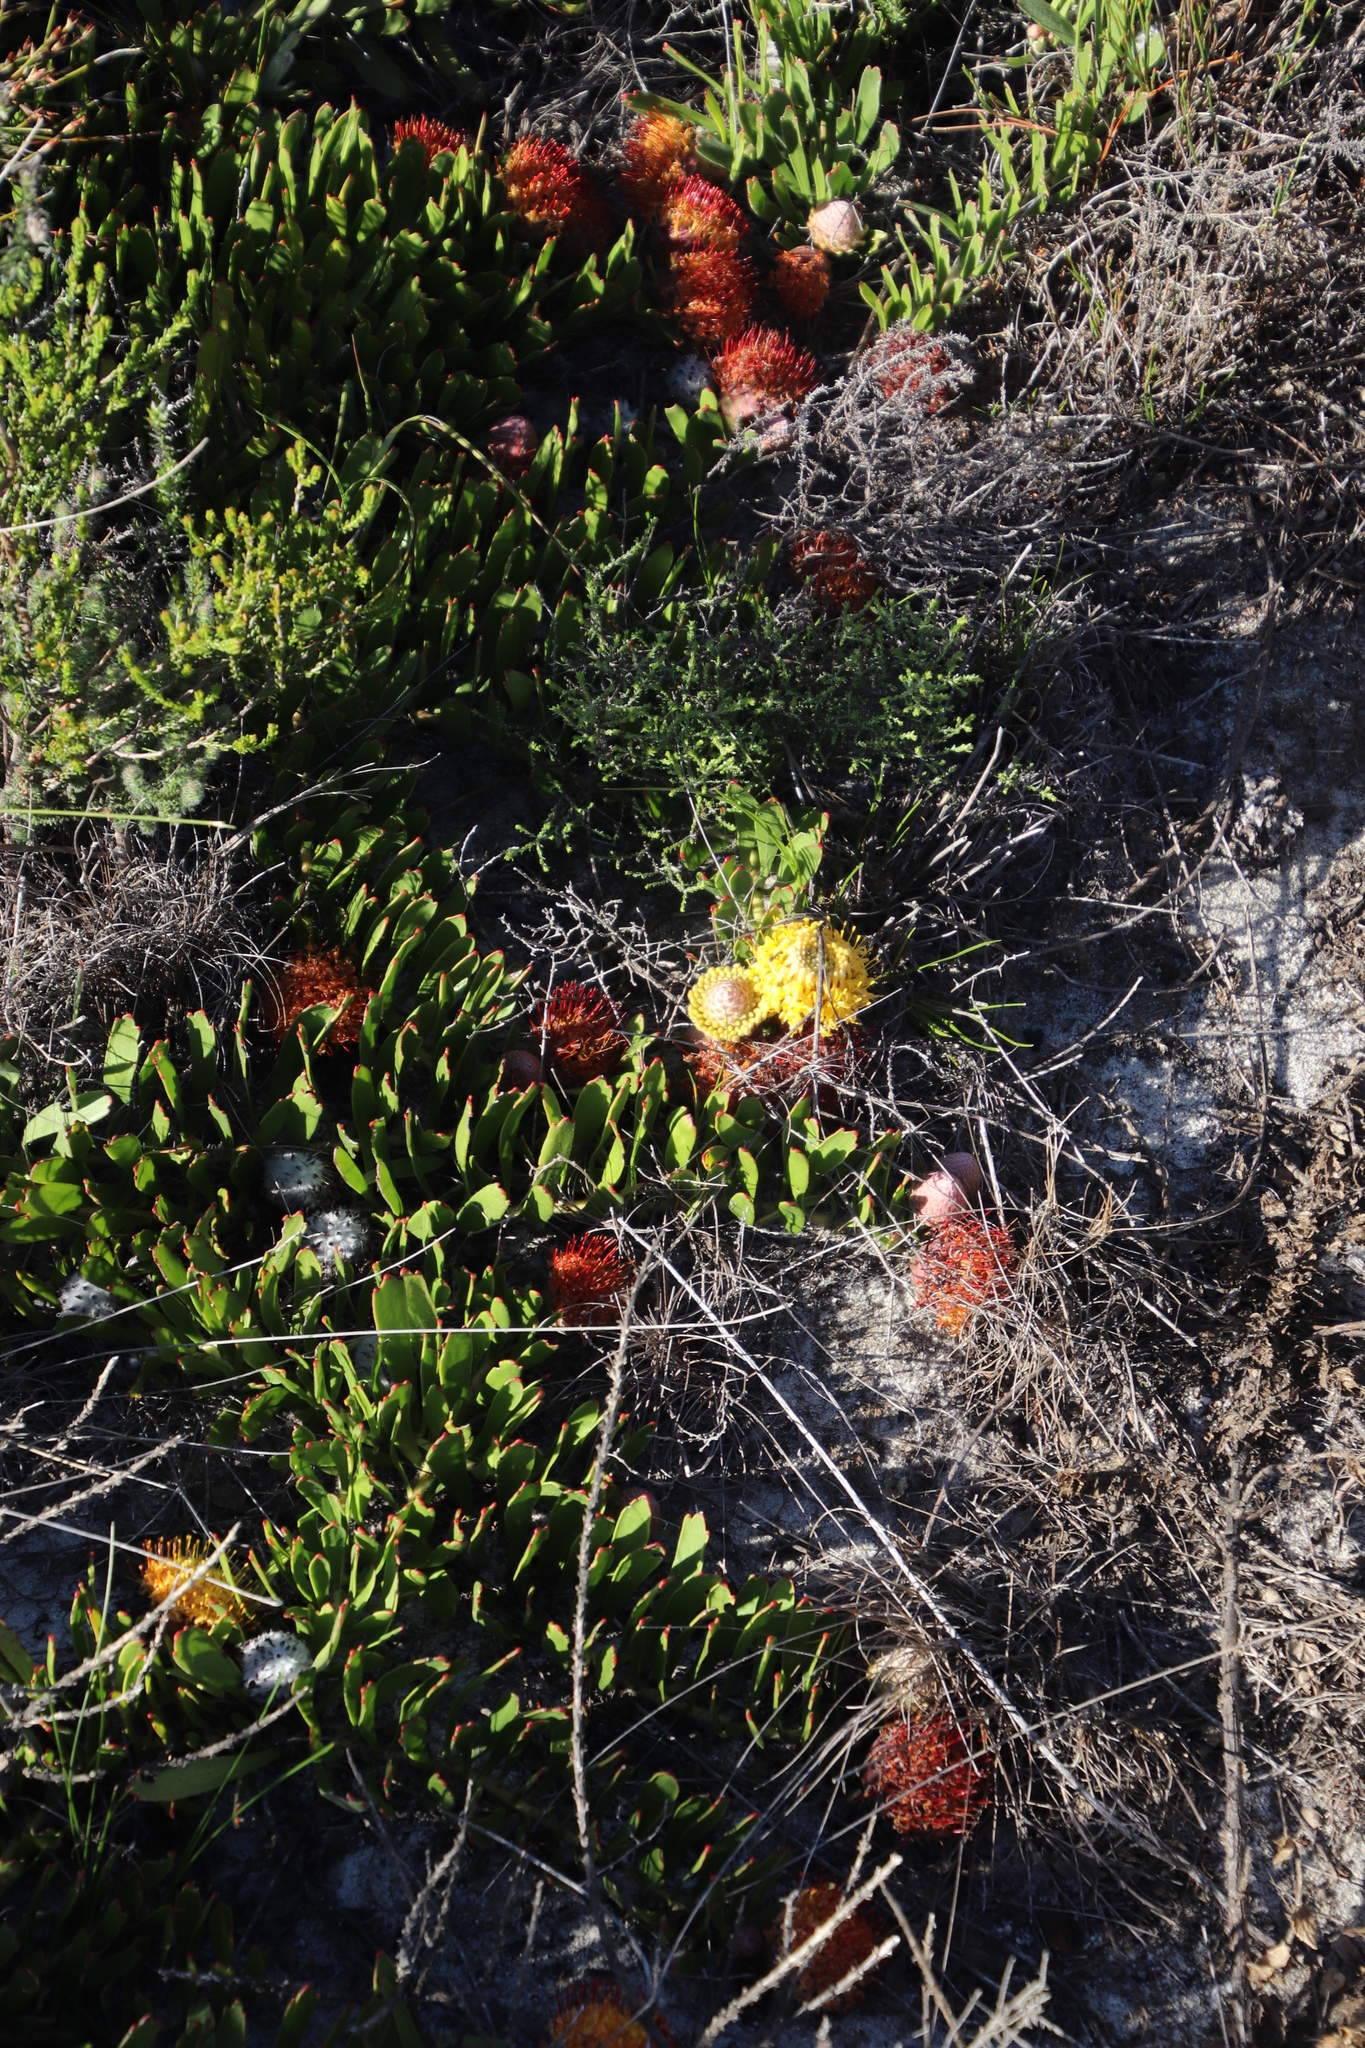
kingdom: Plantae
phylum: Tracheophyta
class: Magnoliopsida
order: Proteales
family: Proteaceae
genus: Leucospermum
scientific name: Leucospermum hypophyllocarpodendron
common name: Snakestem pincushion
